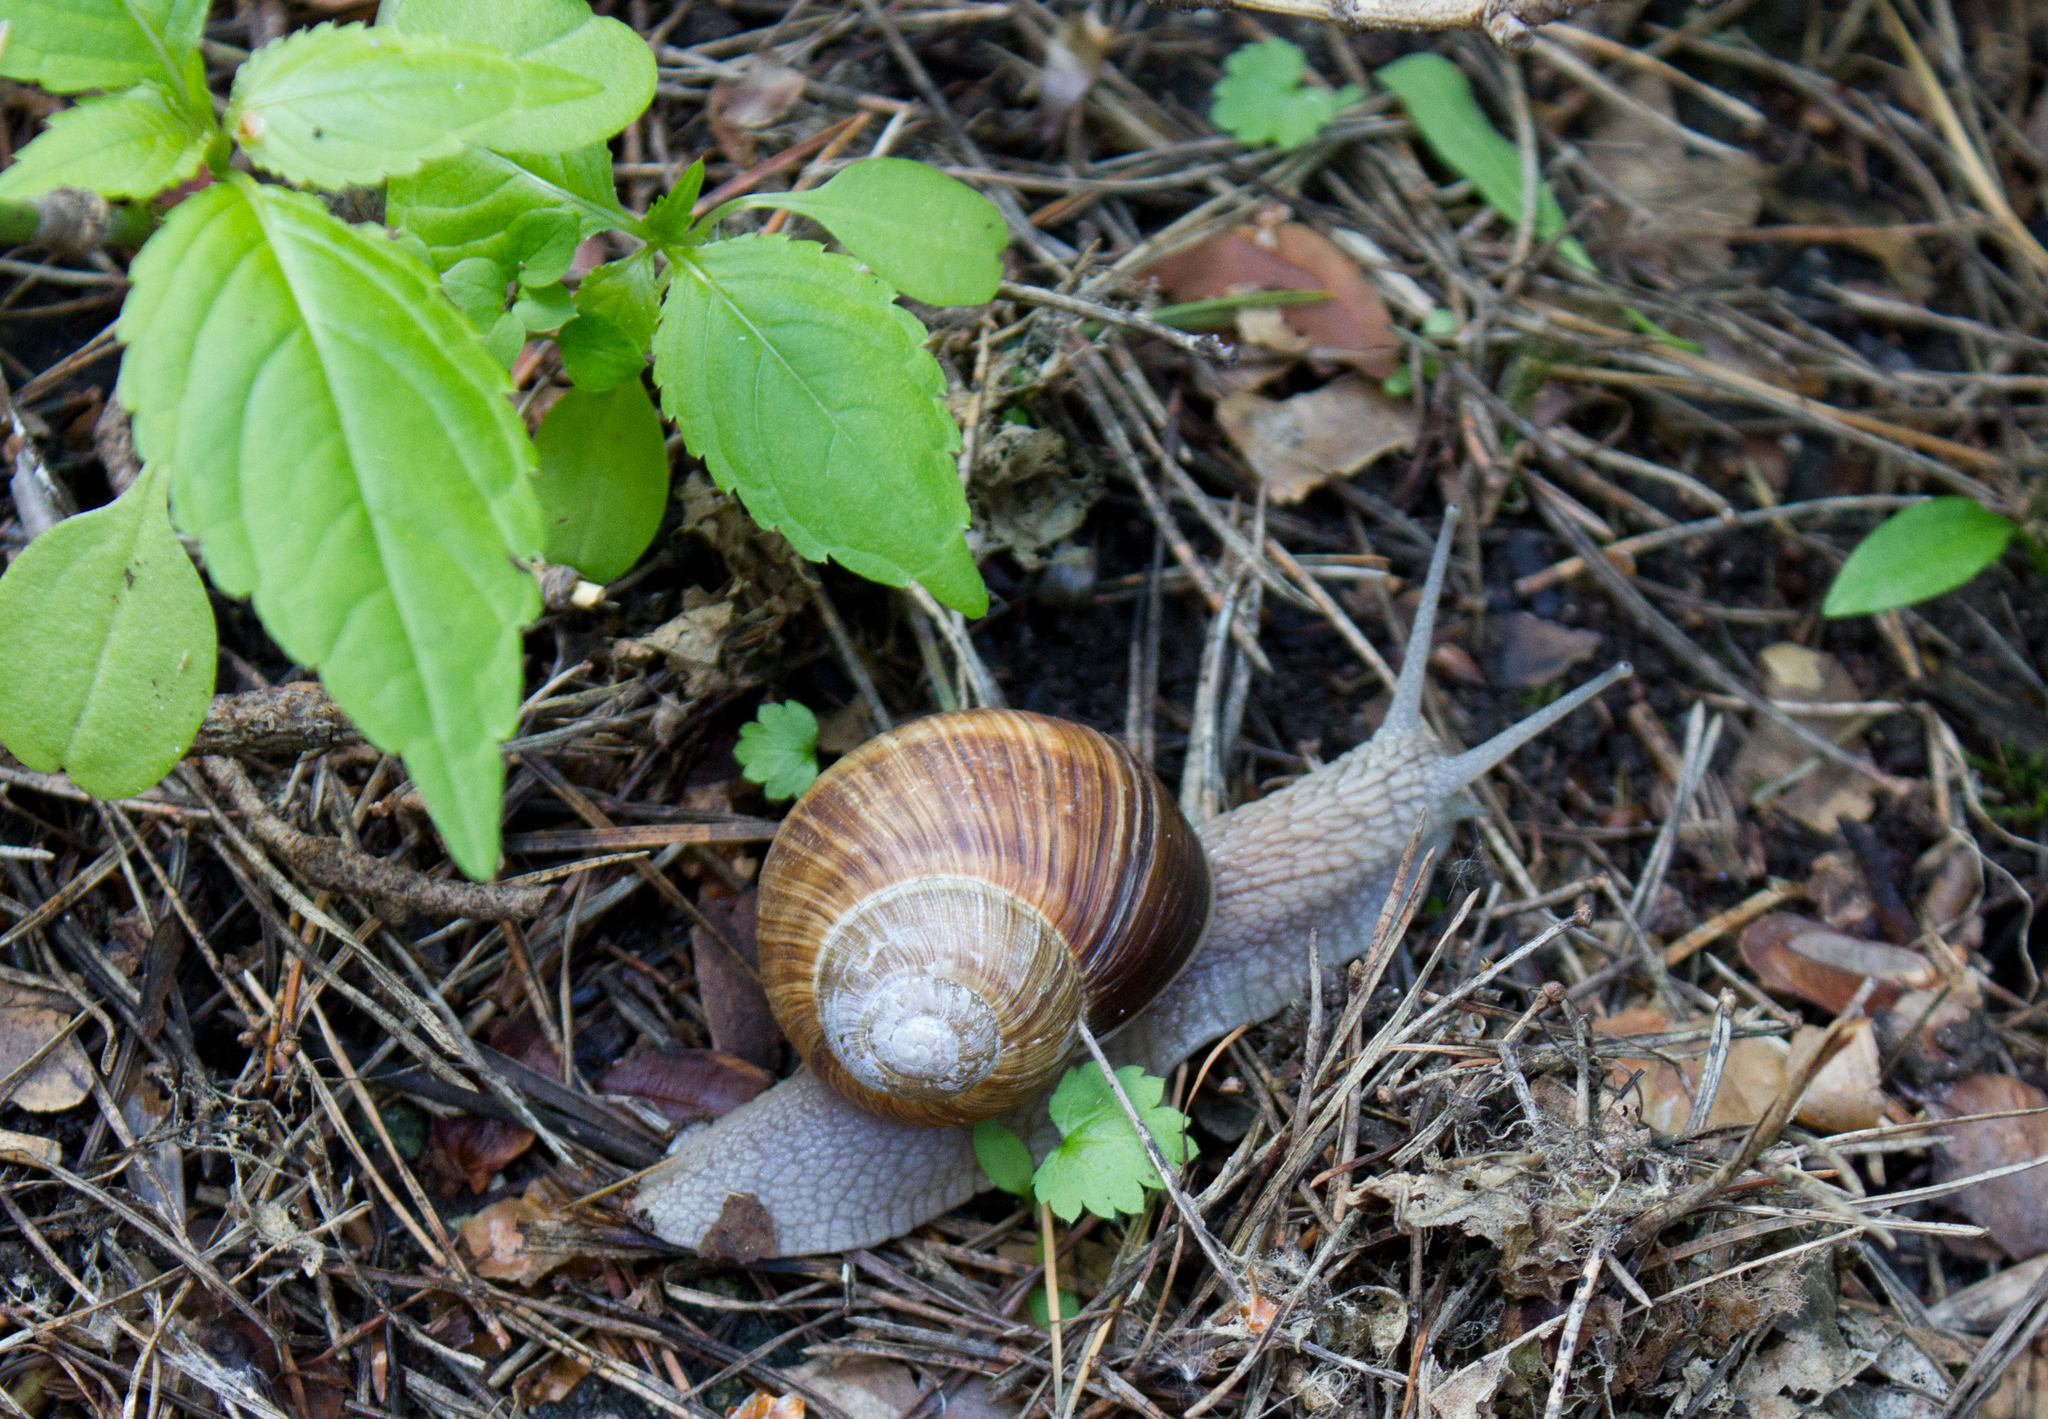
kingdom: Animalia
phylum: Mollusca
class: Gastropoda
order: Stylommatophora
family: Helicidae
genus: Helix
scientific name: Helix pomatia
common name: Roman snail
